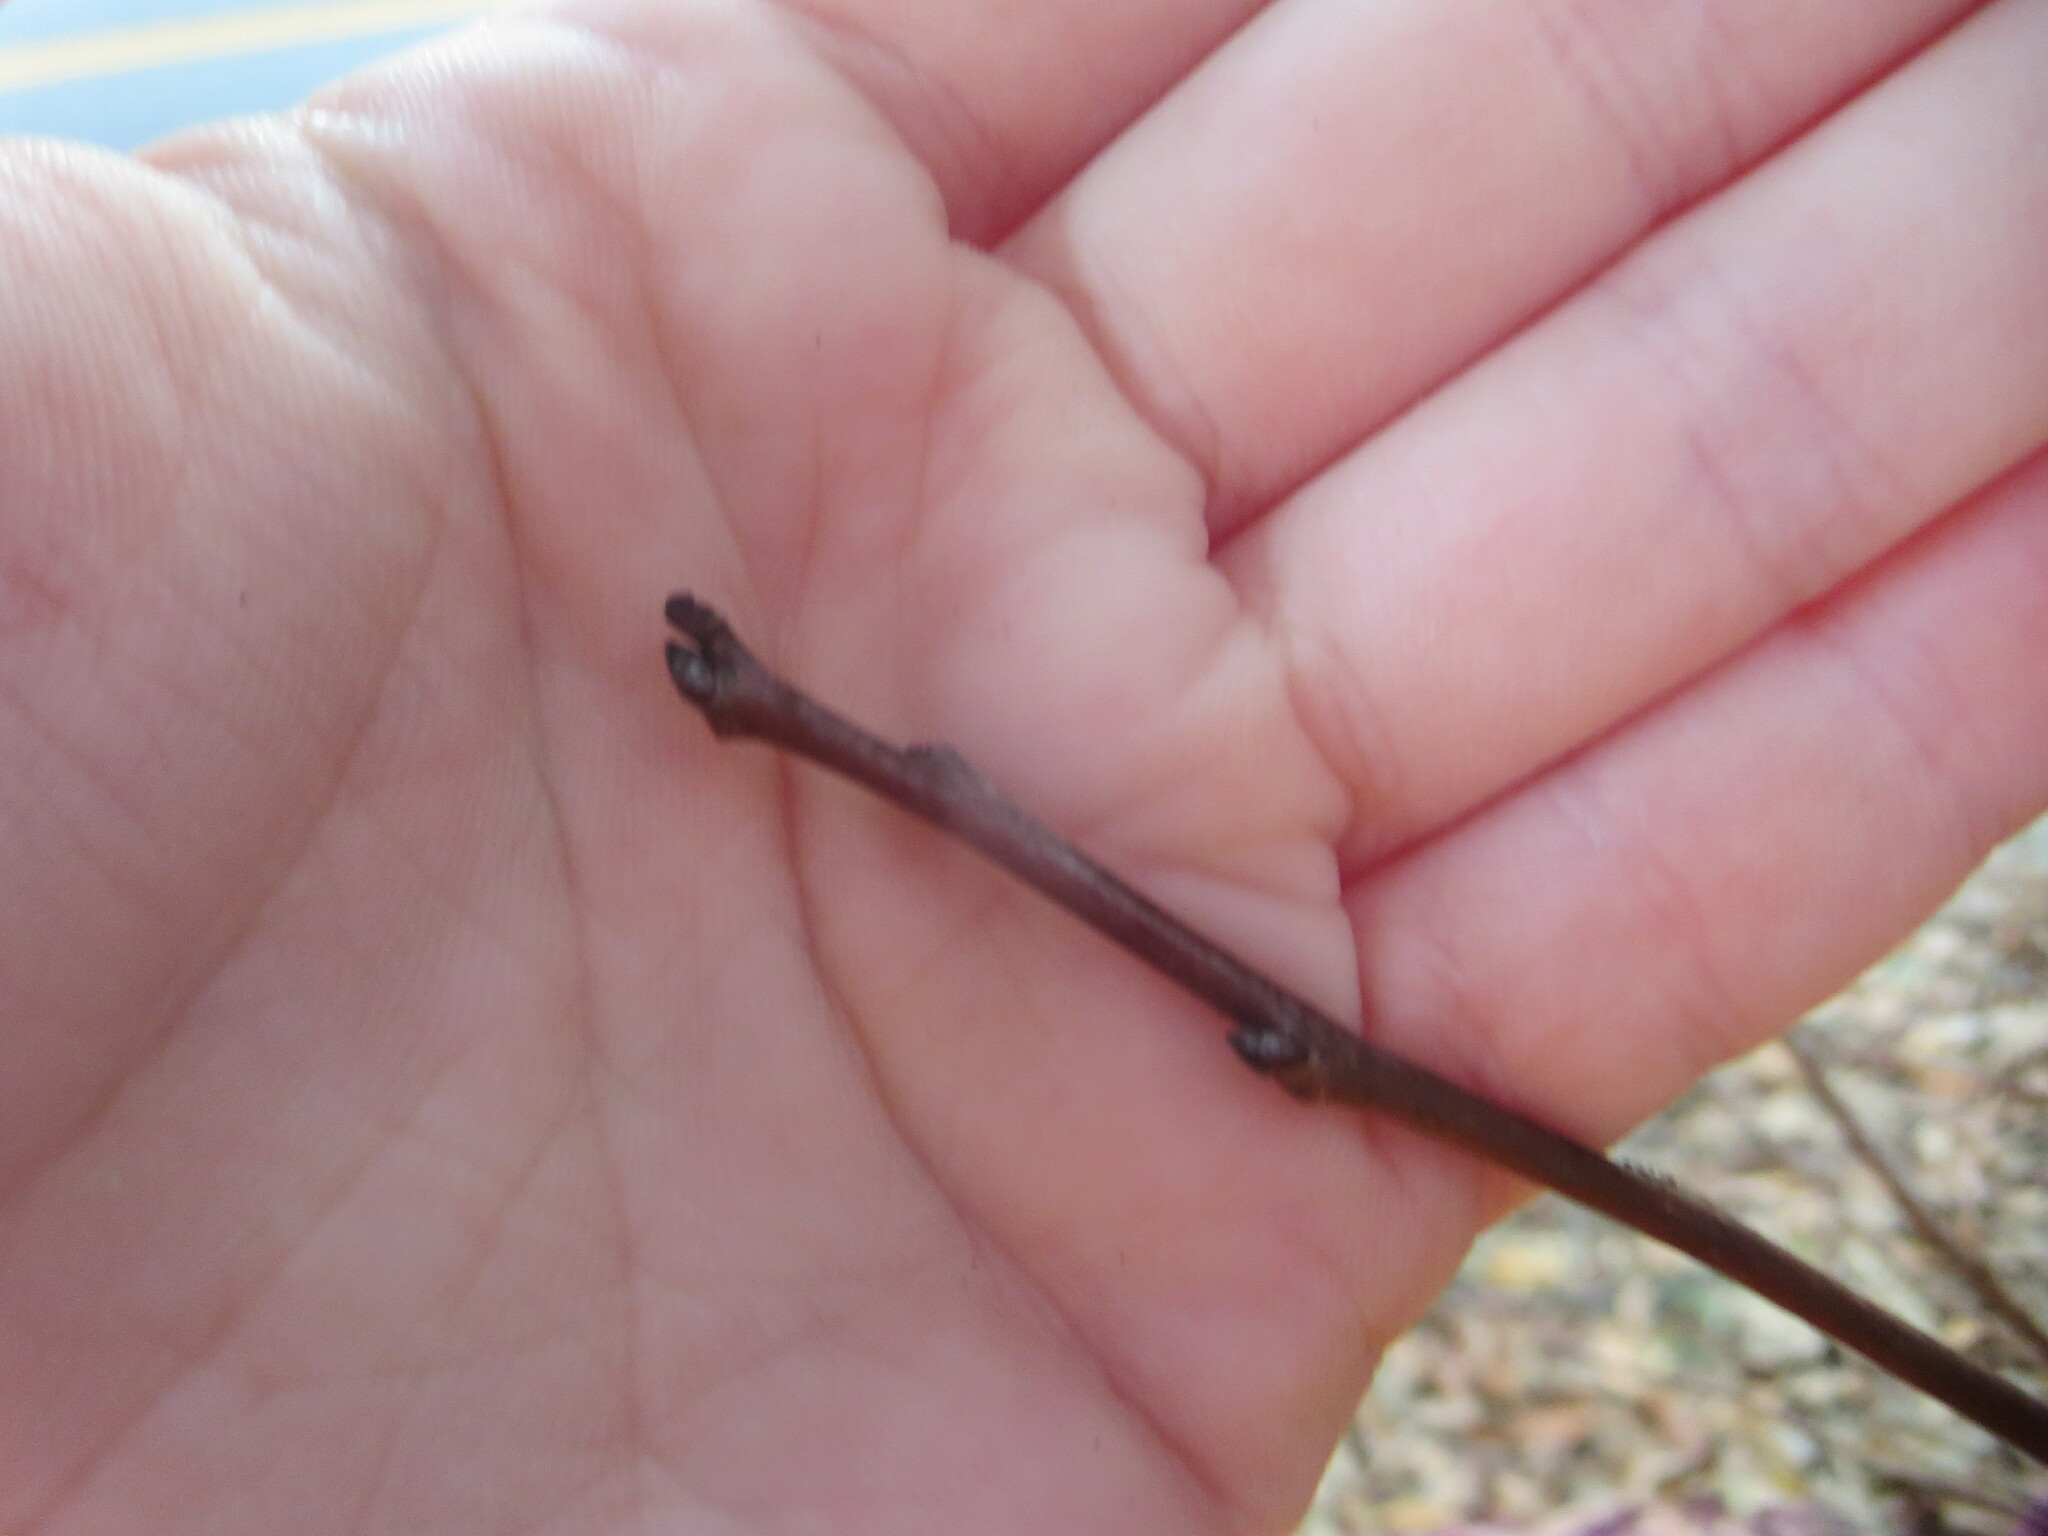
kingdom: Plantae
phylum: Tracheophyta
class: Magnoliopsida
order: Ericales
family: Ebenaceae
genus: Diospyros
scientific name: Diospyros virginiana
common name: Persimmon
